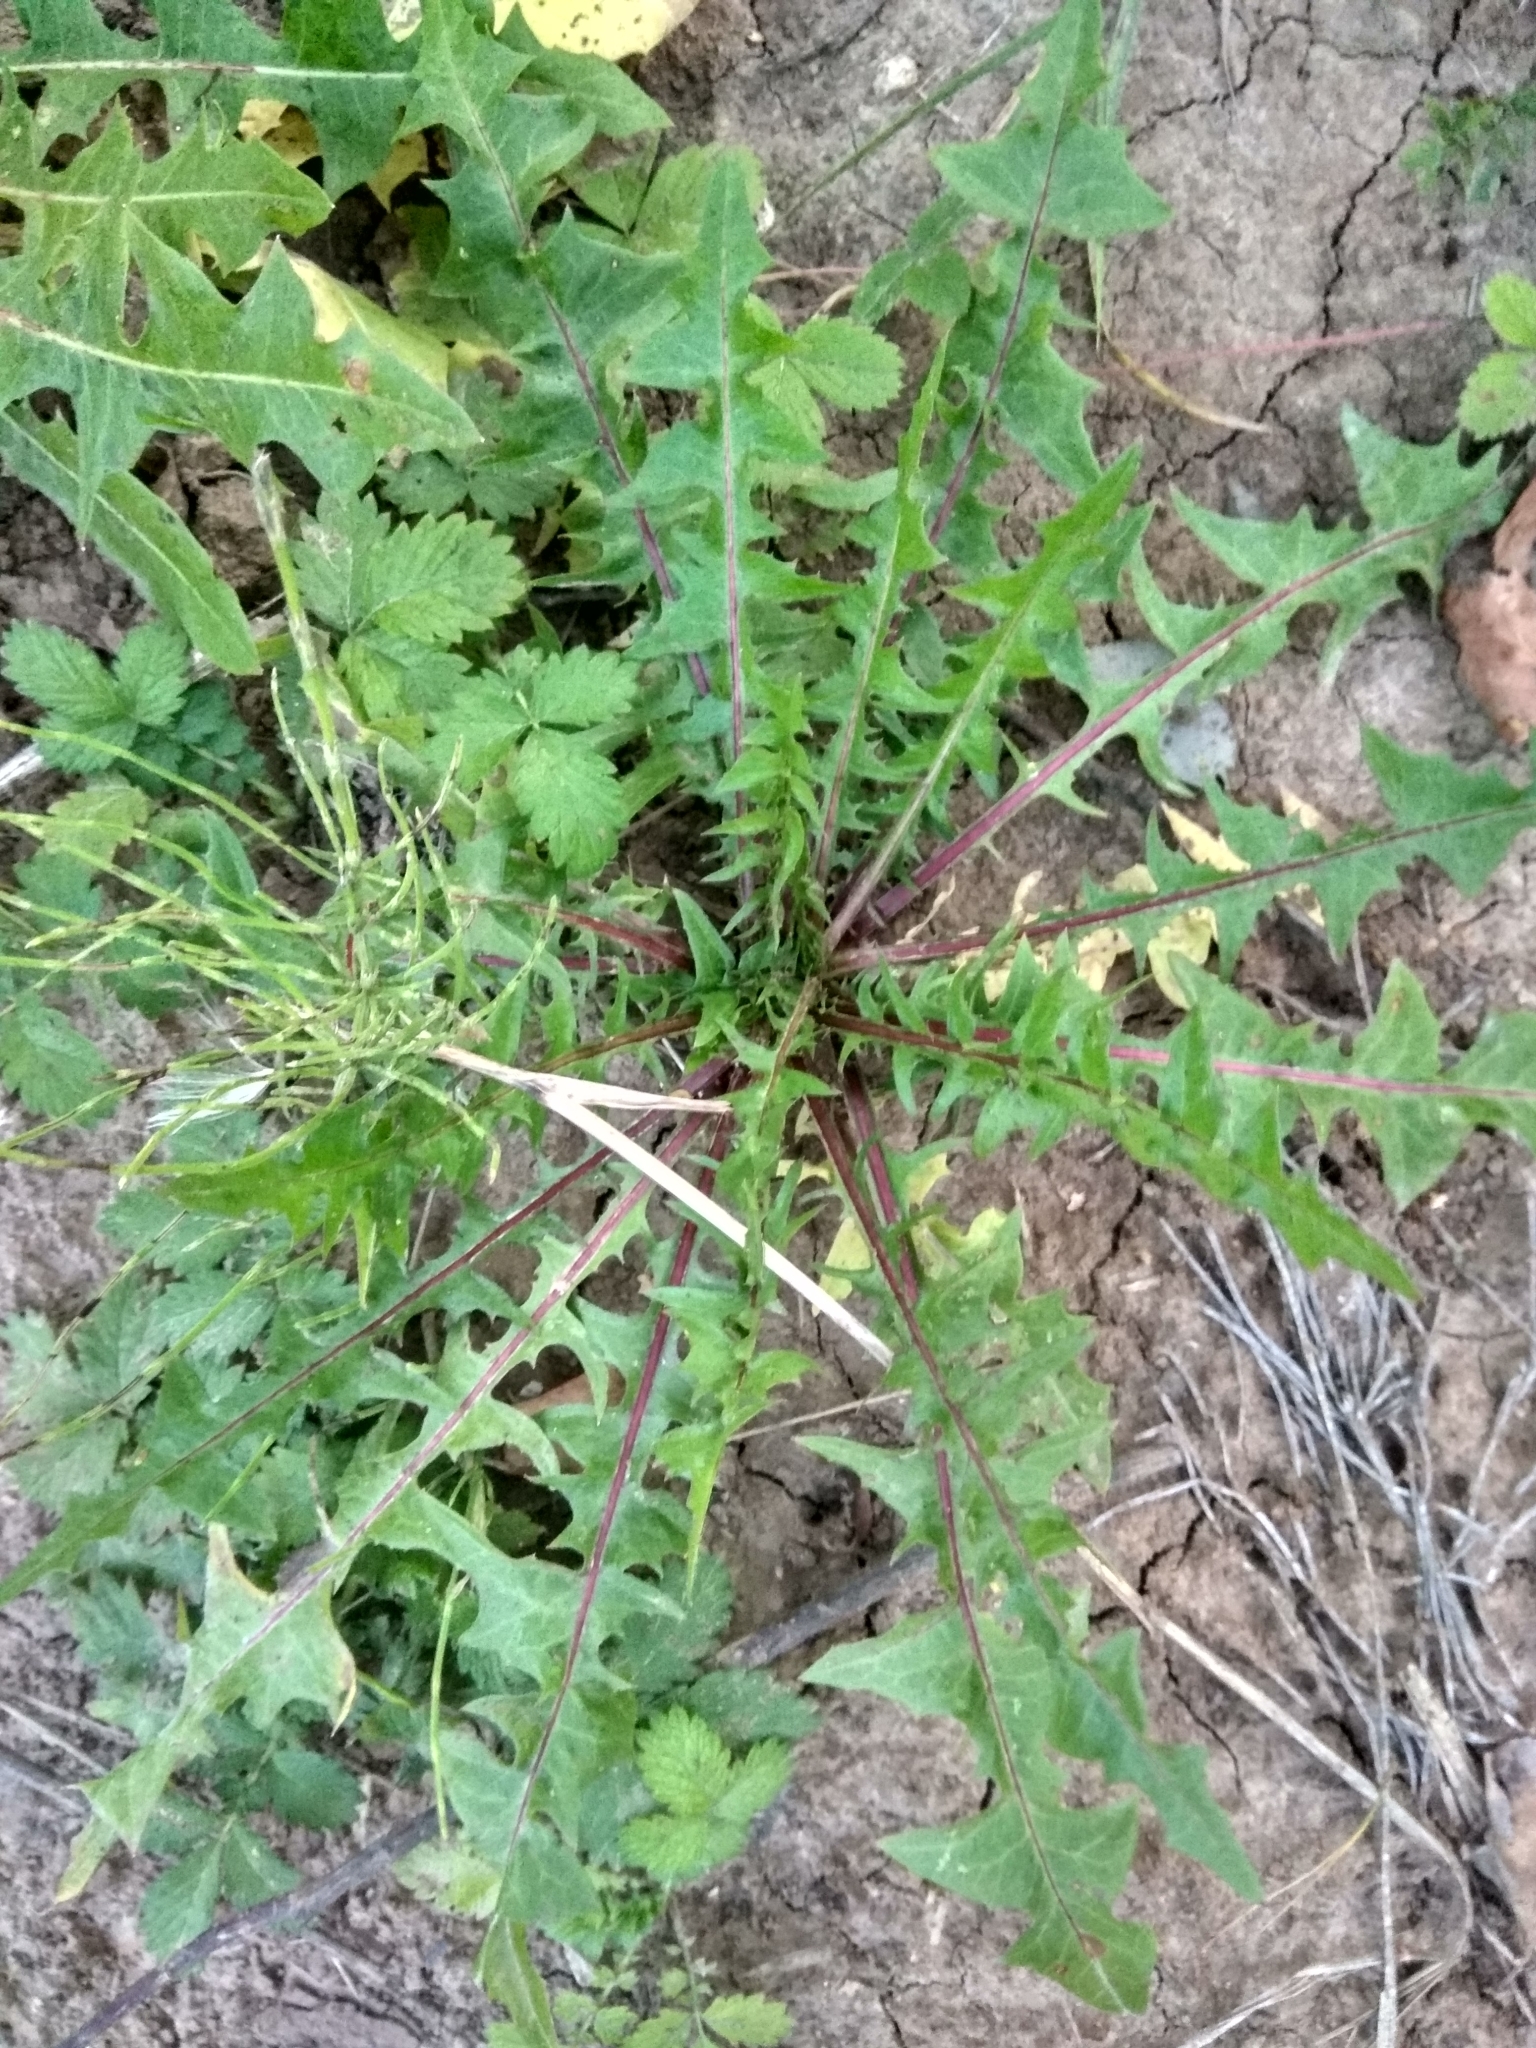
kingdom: Plantae
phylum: Tracheophyta
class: Magnoliopsida
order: Asterales
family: Asteraceae
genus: Taraxacum
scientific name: Taraxacum officinale
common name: Common dandelion
